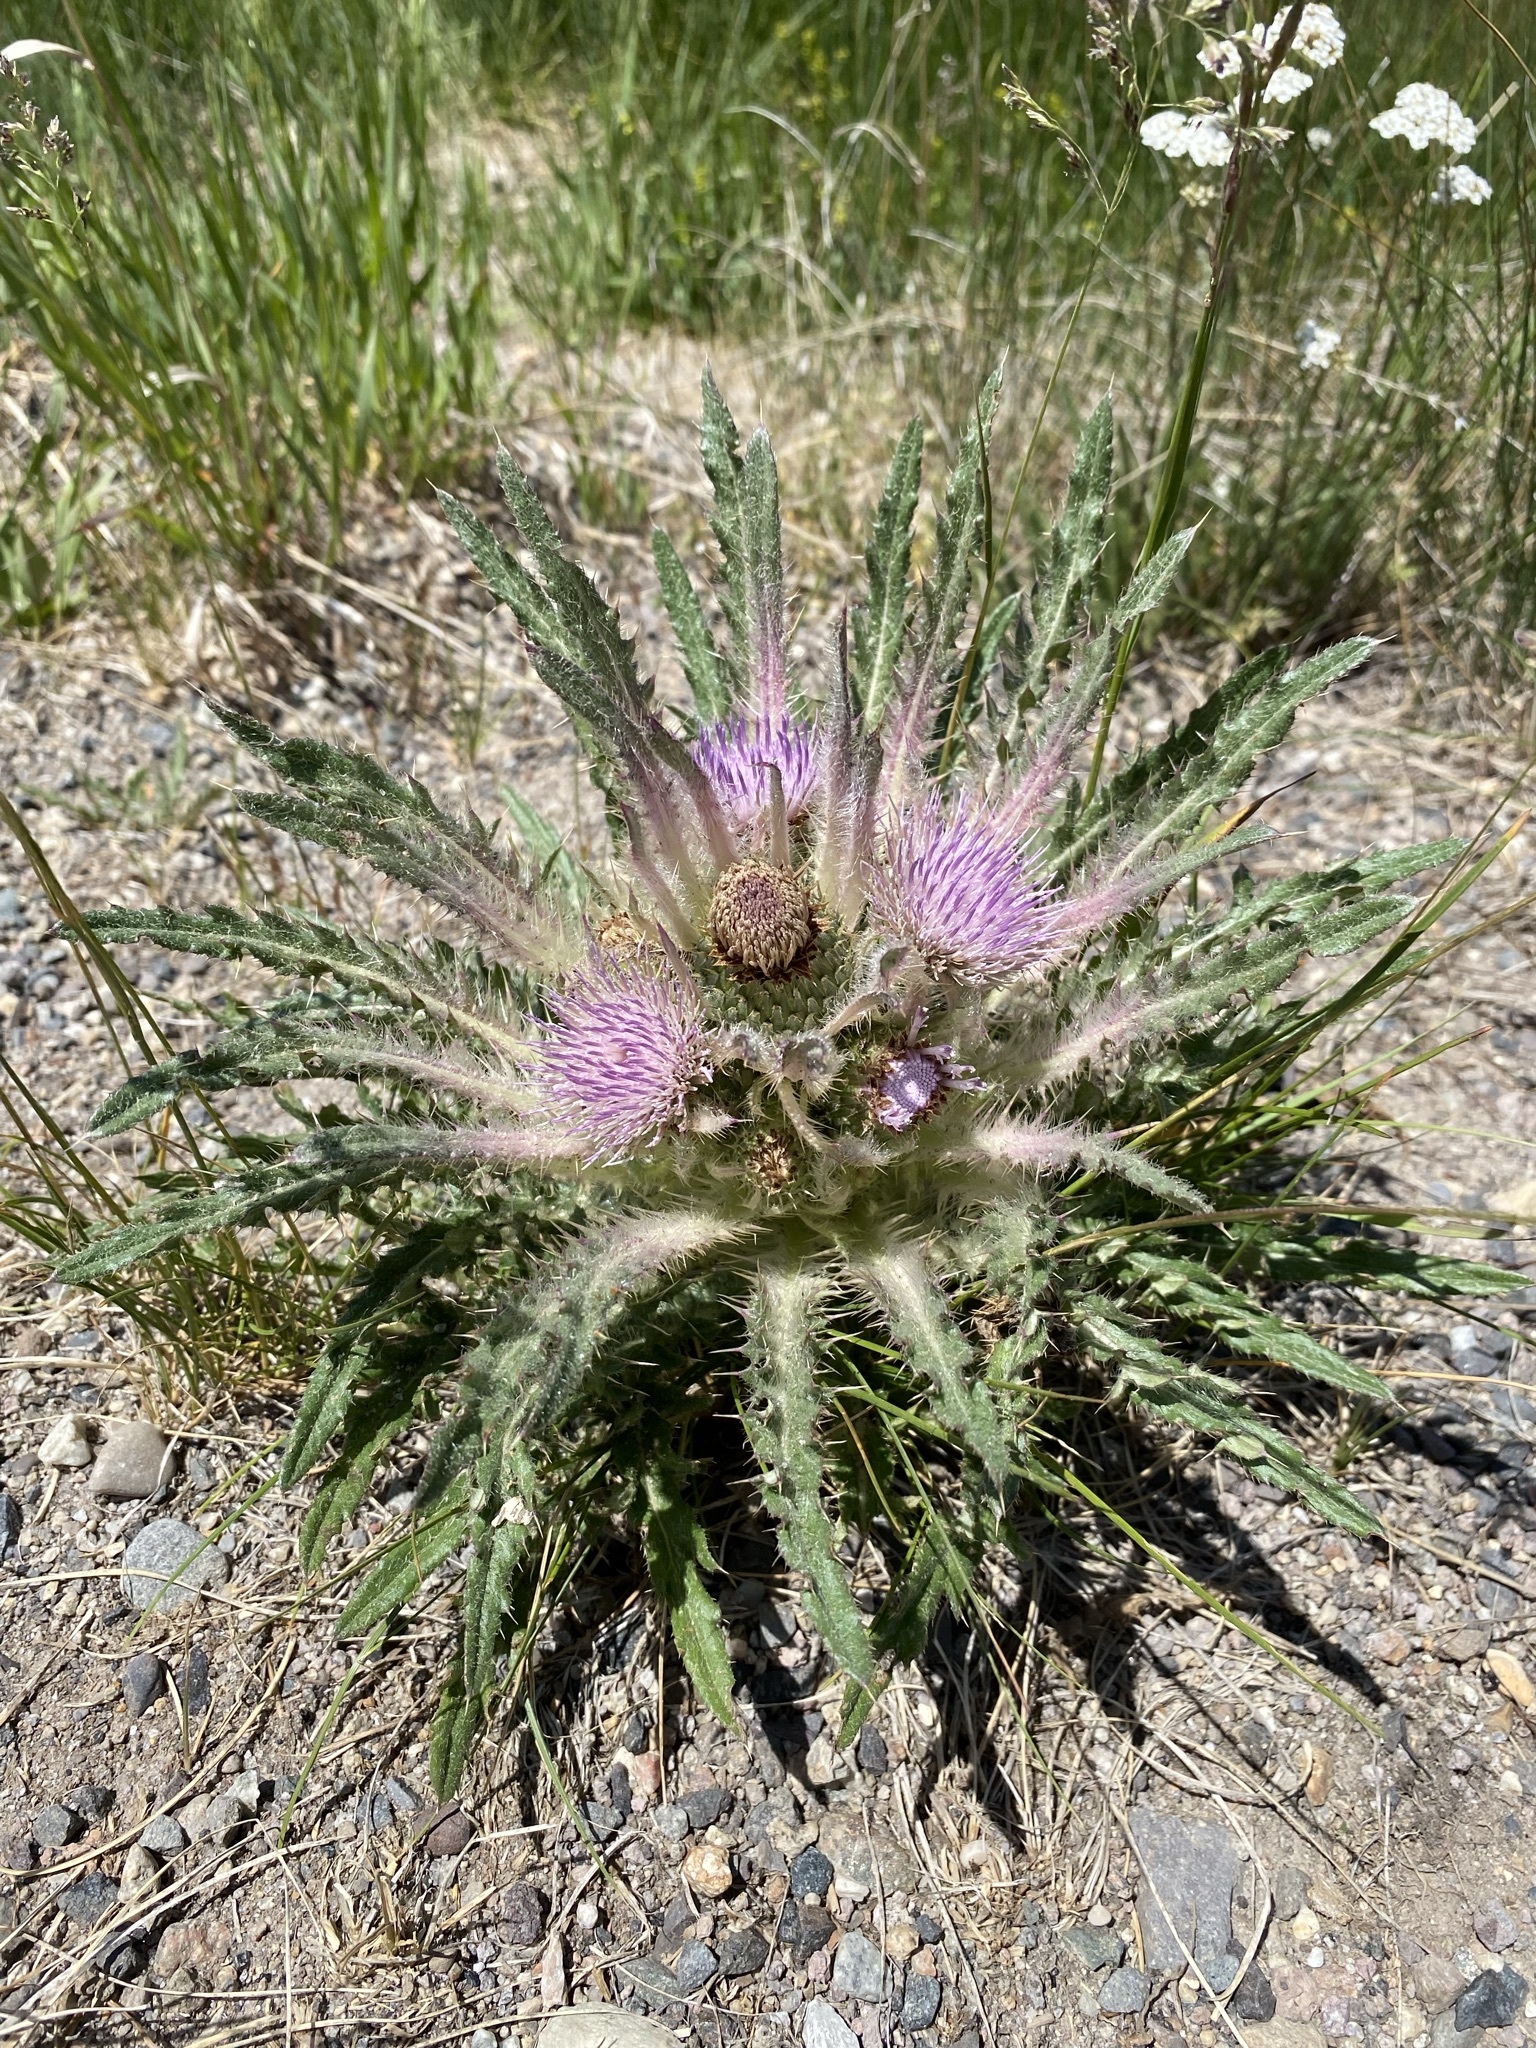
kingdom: Plantae
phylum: Tracheophyta
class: Magnoliopsida
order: Asterales
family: Asteraceae
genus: Cirsium
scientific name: Cirsium scariosum
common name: Meadow thistle
